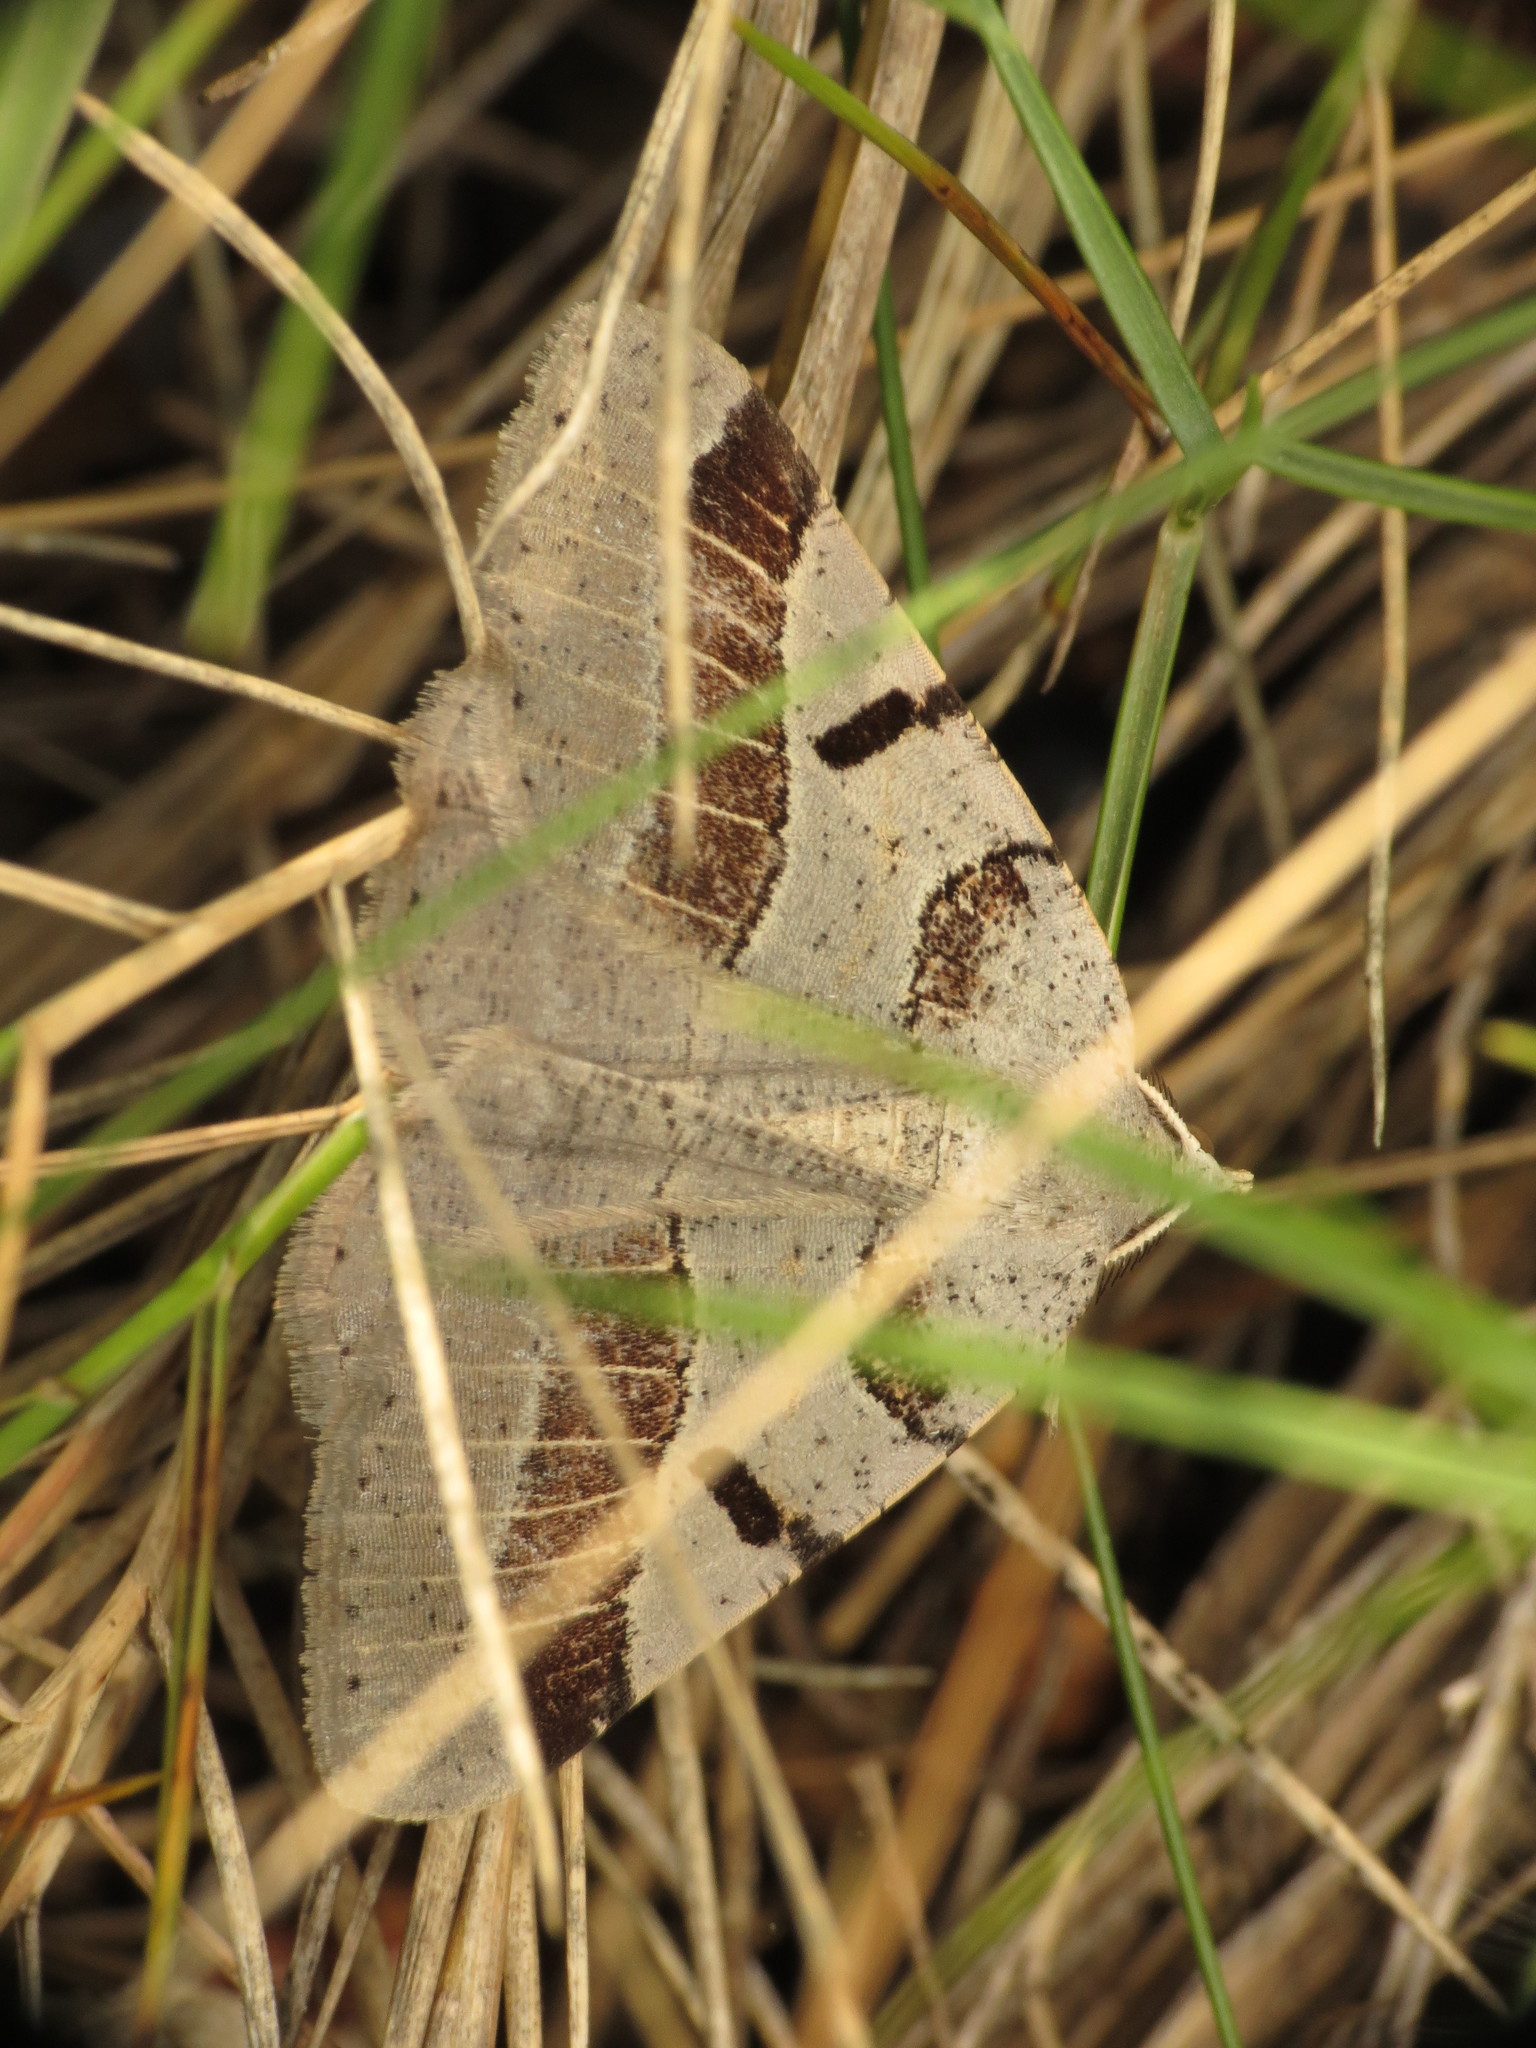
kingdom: Animalia
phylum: Arthropoda
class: Insecta
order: Lepidoptera
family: Geometridae
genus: Itame
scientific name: Itame vincularia
